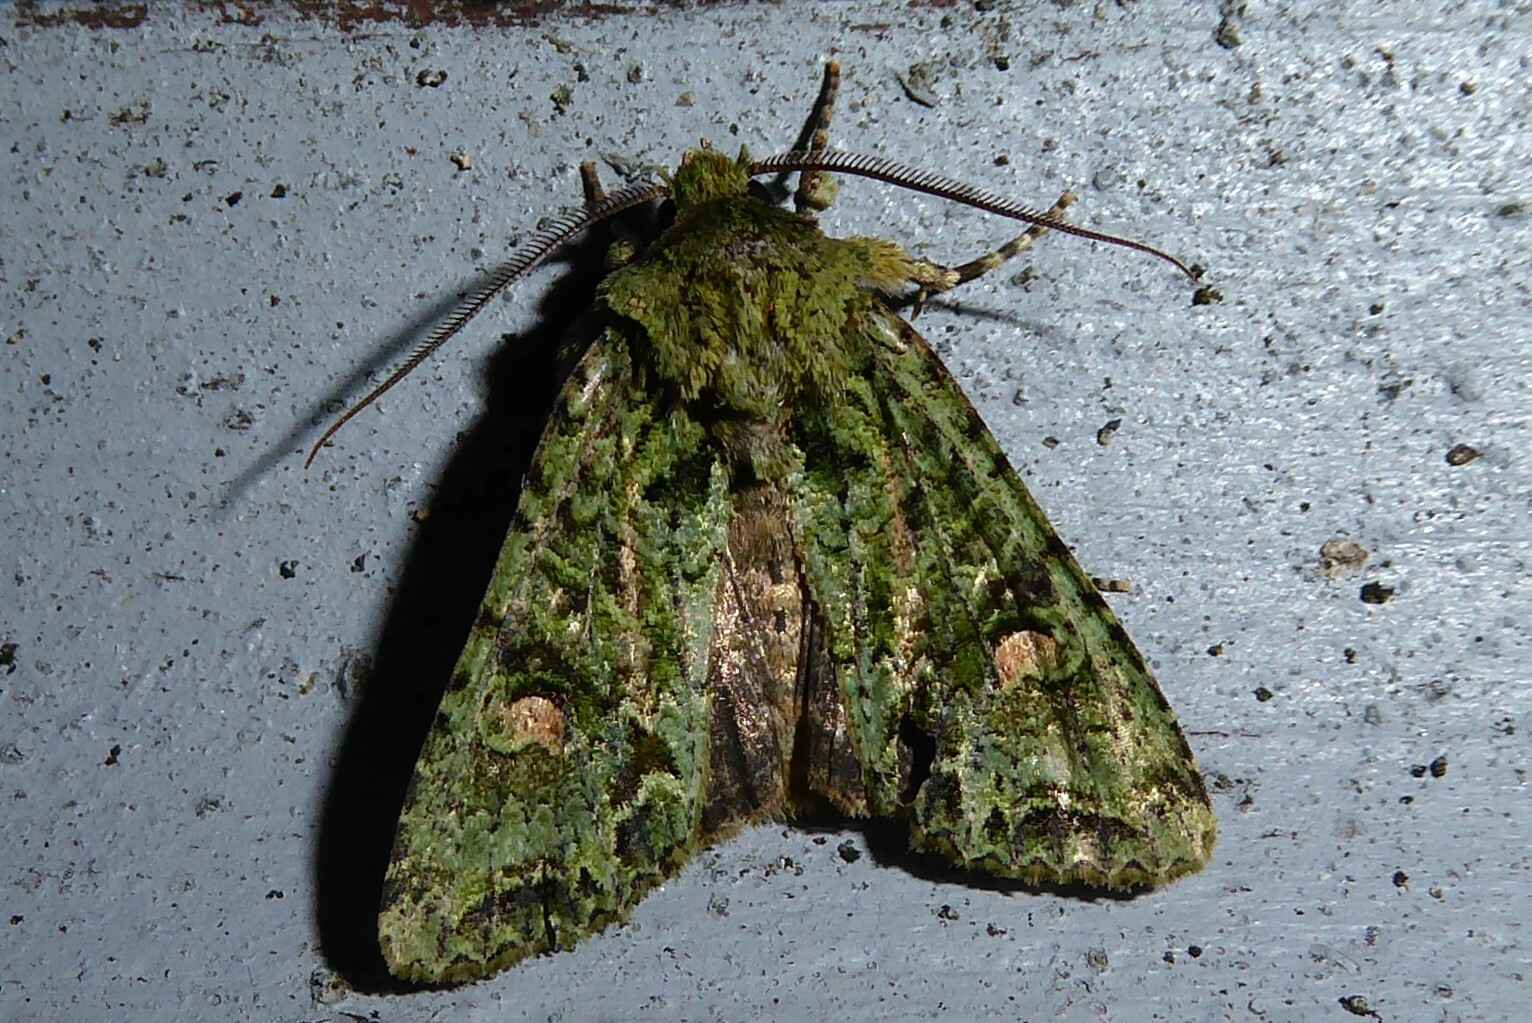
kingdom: Animalia
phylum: Arthropoda
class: Insecta
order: Lepidoptera
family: Noctuidae
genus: Ichneutica
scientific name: Ichneutica
